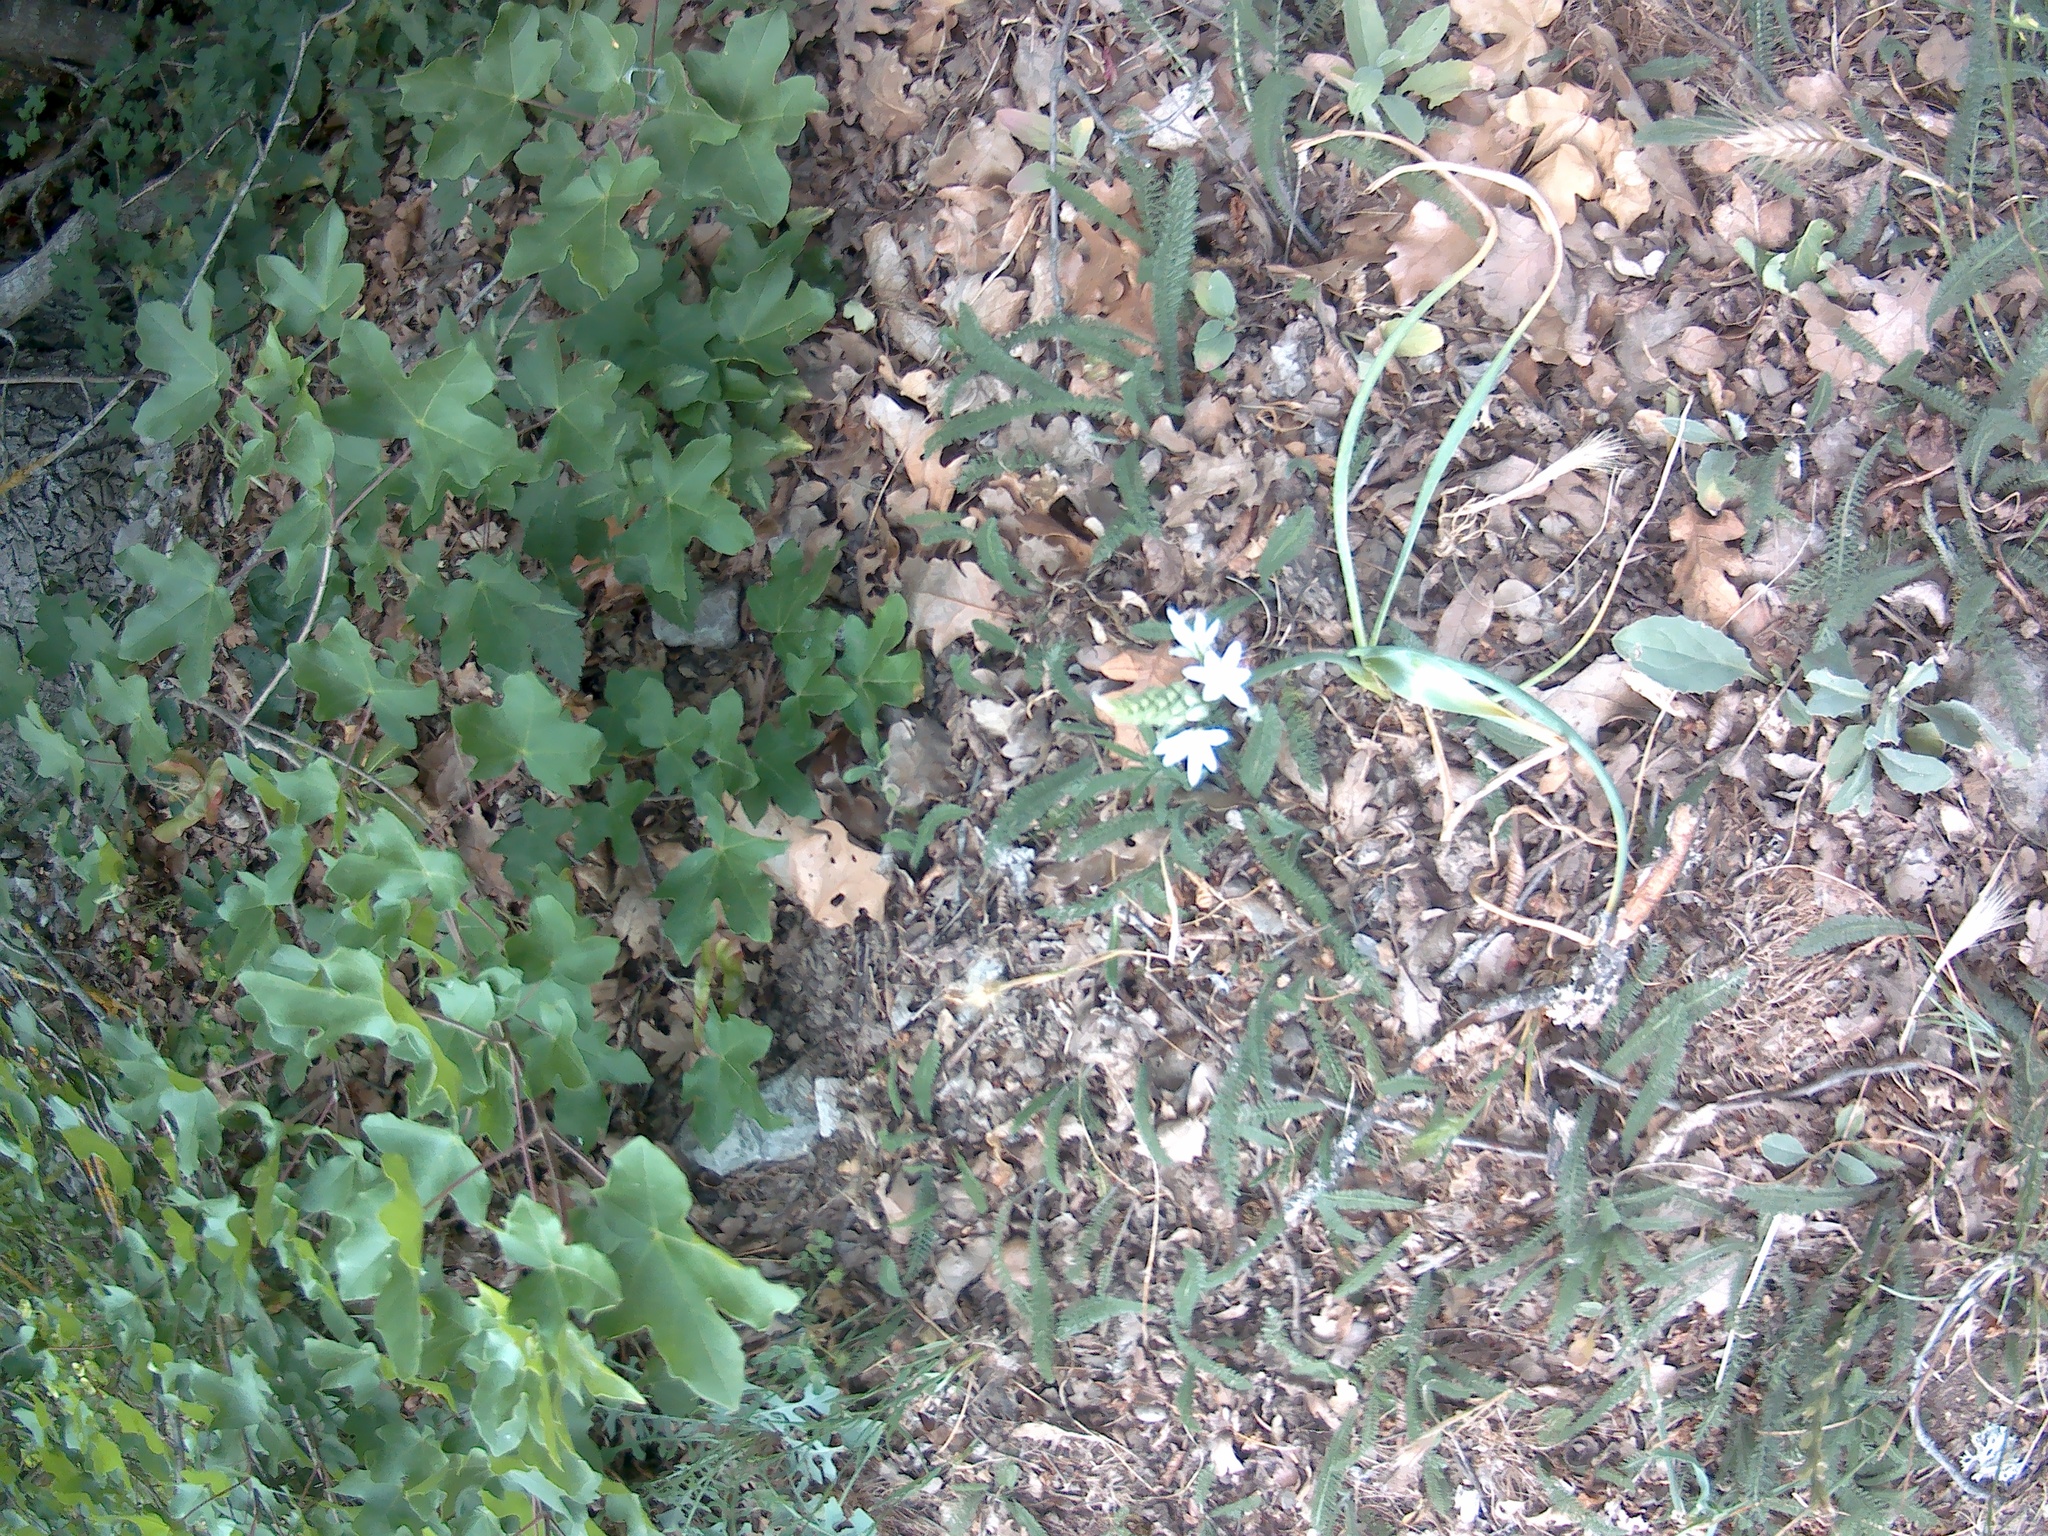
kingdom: Plantae
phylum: Tracheophyta
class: Liliopsida
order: Asparagales
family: Asparagaceae
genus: Ornithogalum
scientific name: Ornithogalum ponticum
